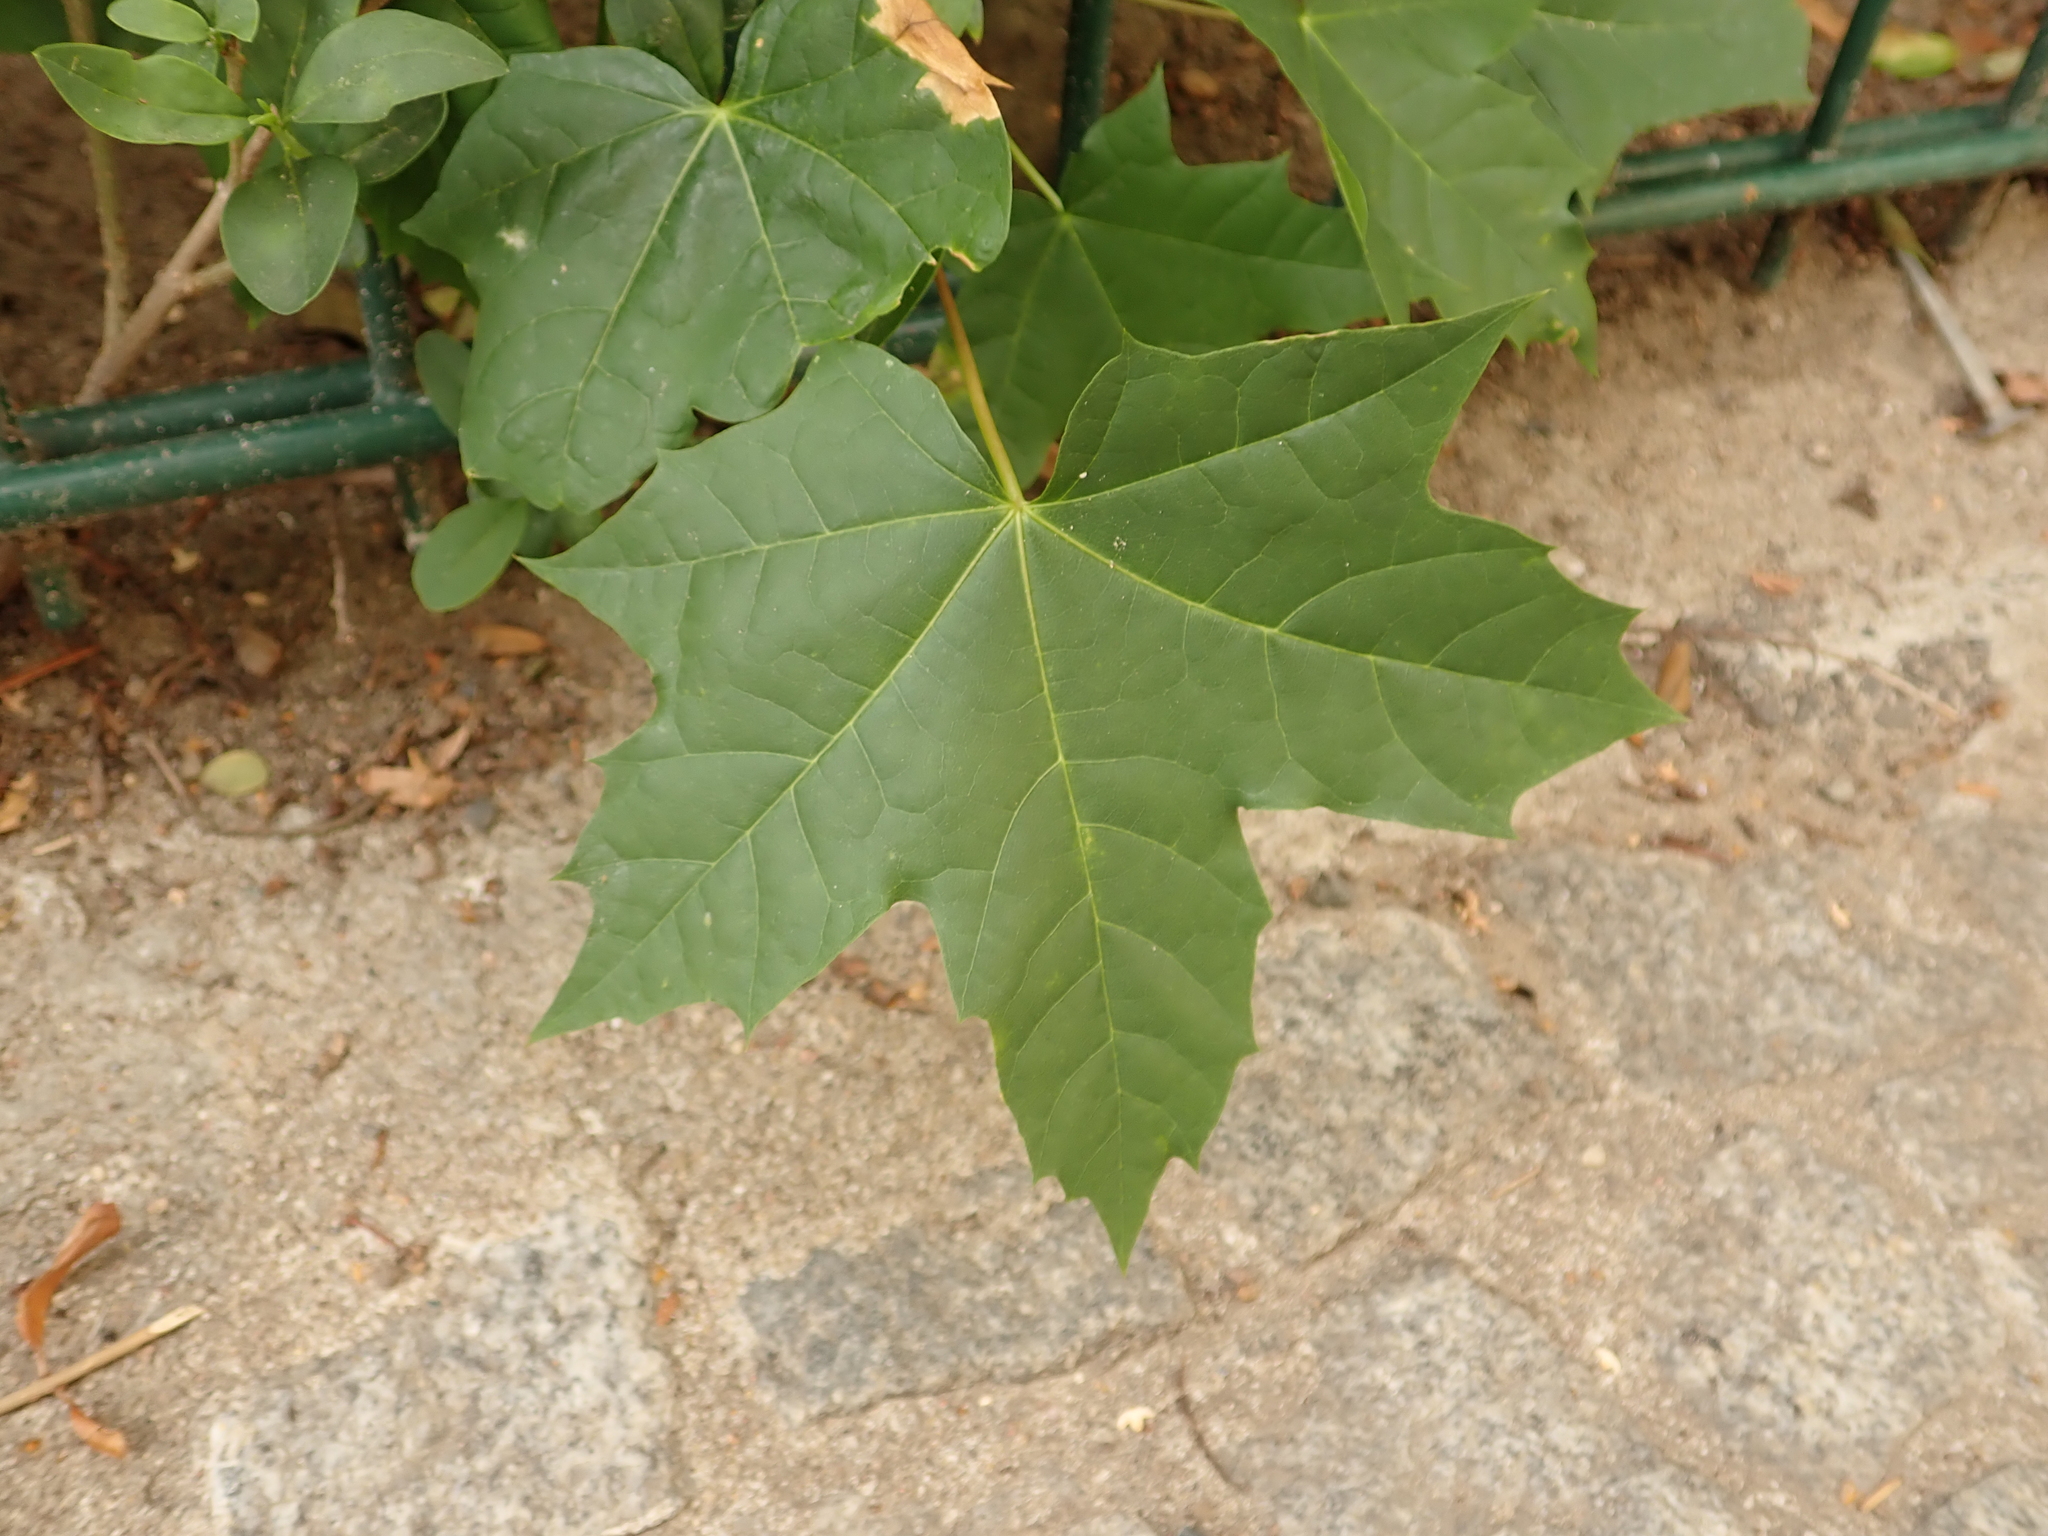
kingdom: Plantae
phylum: Tracheophyta
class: Magnoliopsida
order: Sapindales
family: Sapindaceae
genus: Acer
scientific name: Acer platanoides
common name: Norway maple
